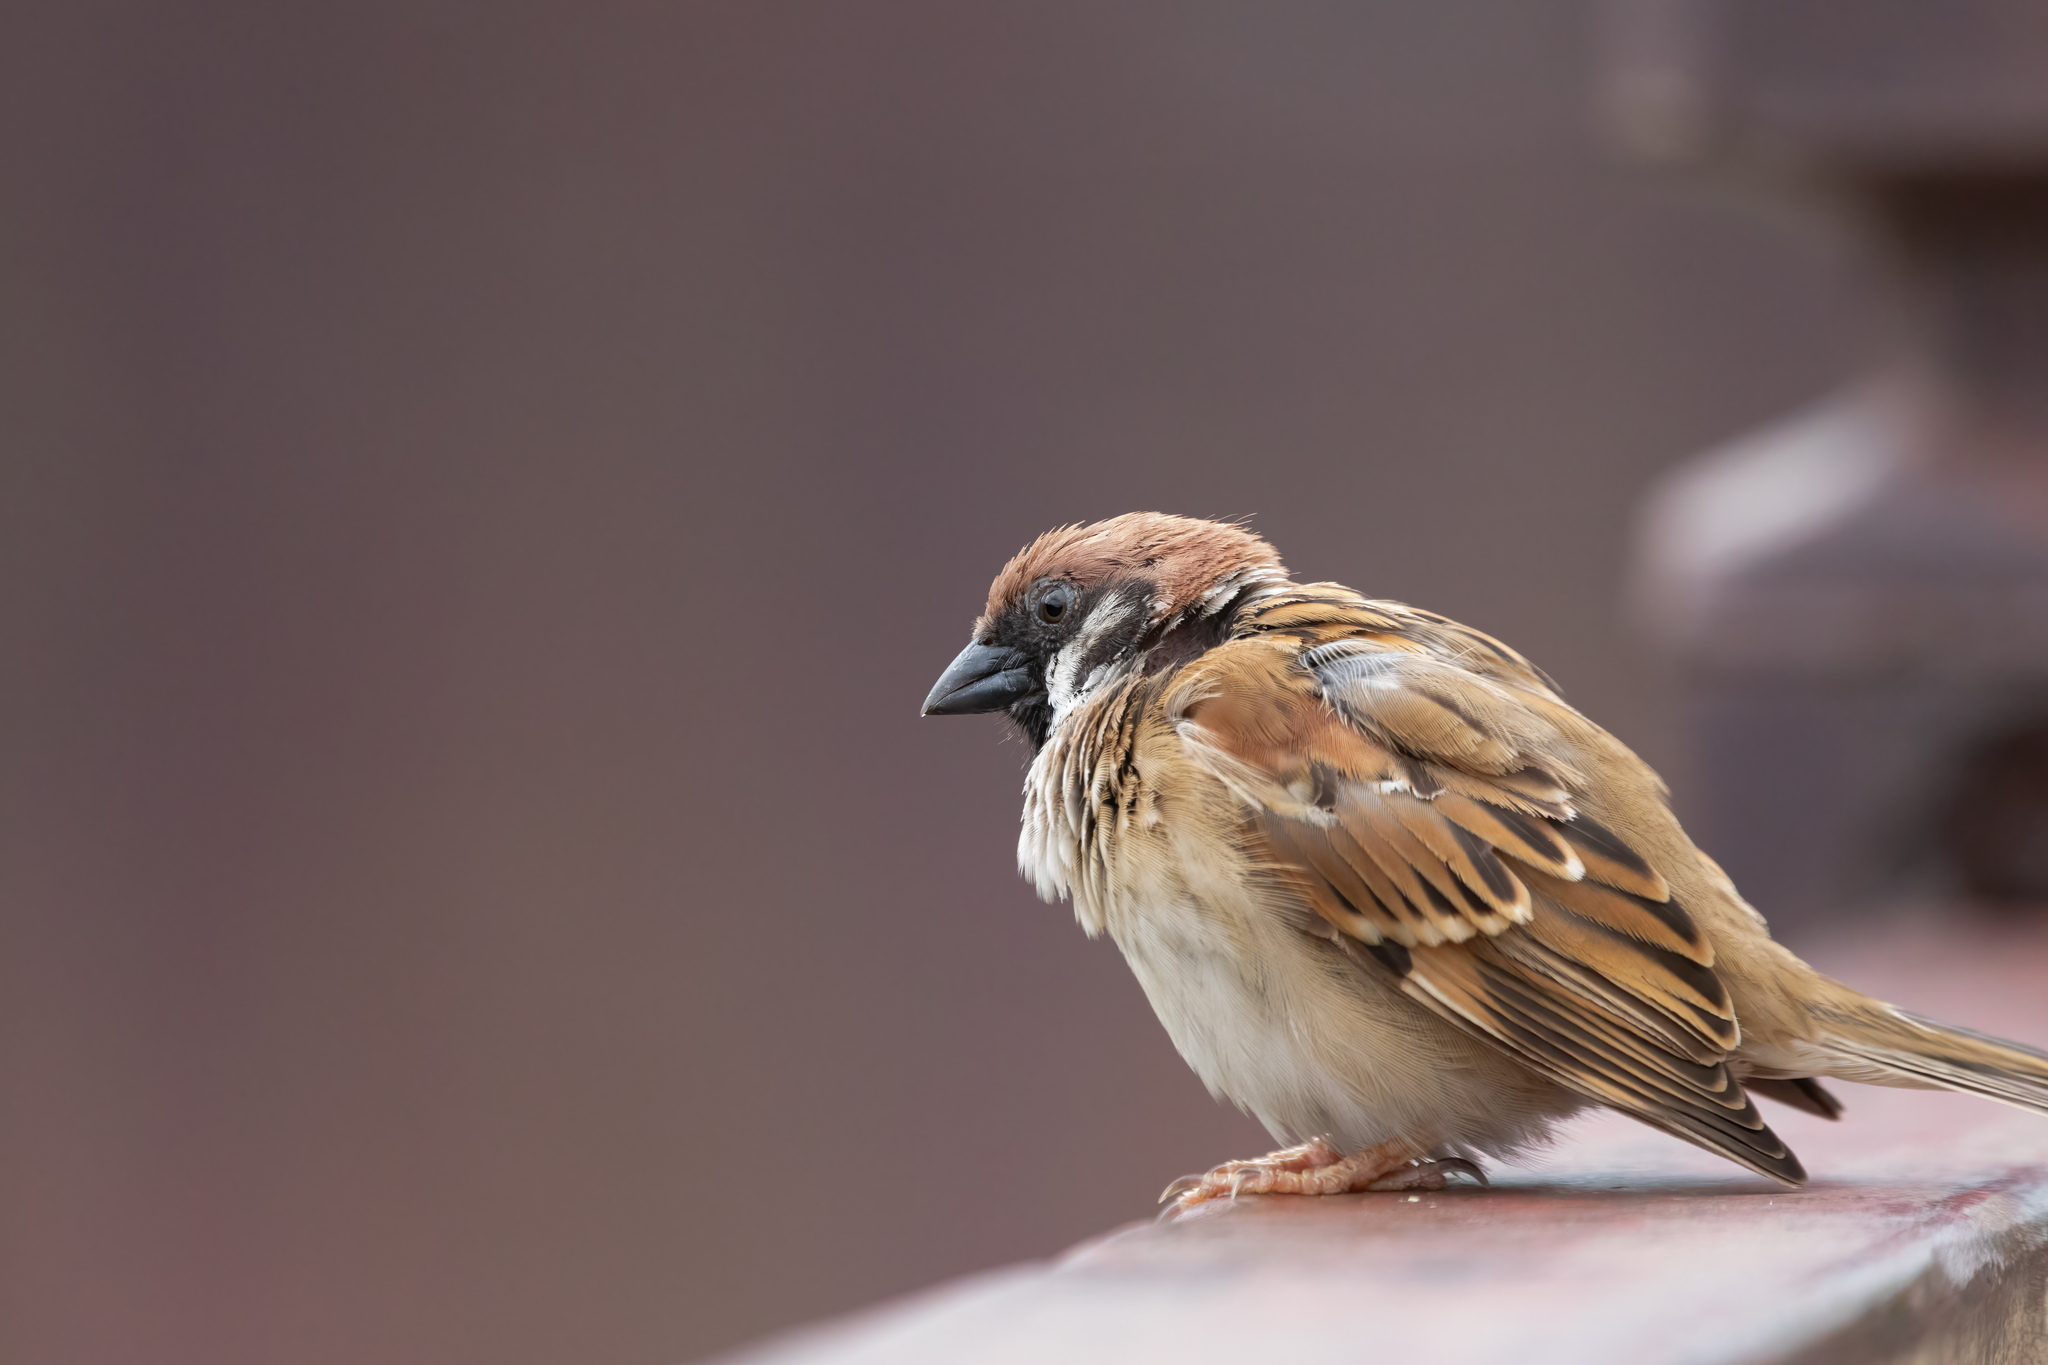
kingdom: Animalia
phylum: Chordata
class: Aves
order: Passeriformes
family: Passeridae
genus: Passer
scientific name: Passer montanus
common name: Eurasian tree sparrow
